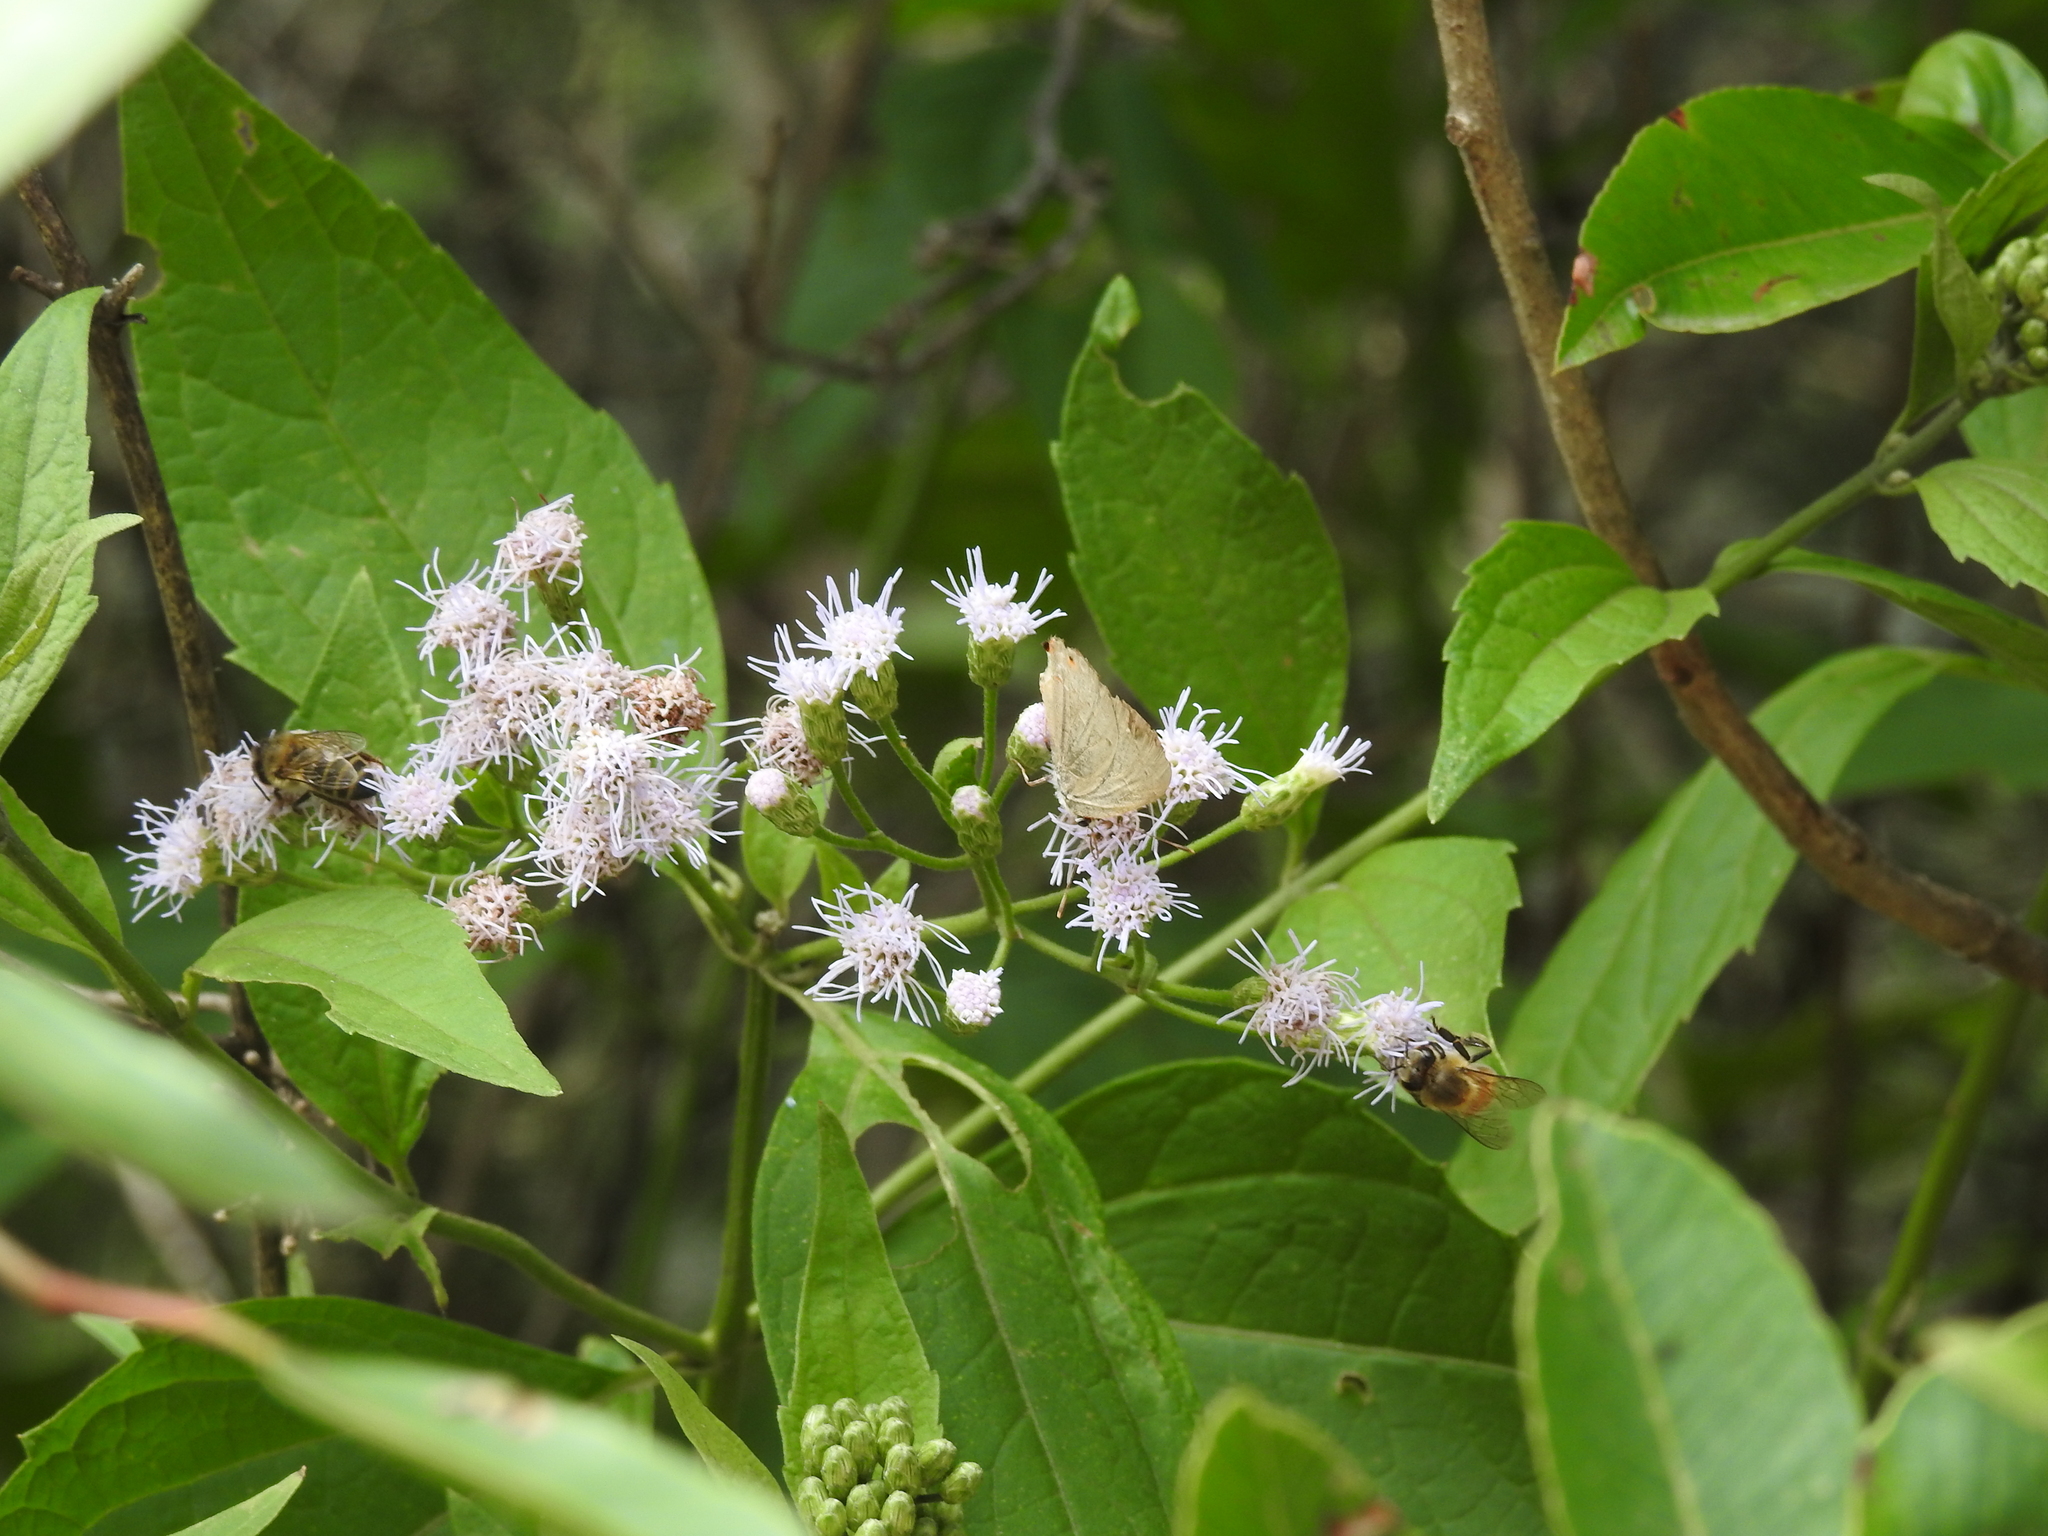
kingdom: Animalia
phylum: Arthropoda
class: Insecta
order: Lepidoptera
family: Lycaenidae
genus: Thecla
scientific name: Thecla rufofusca
